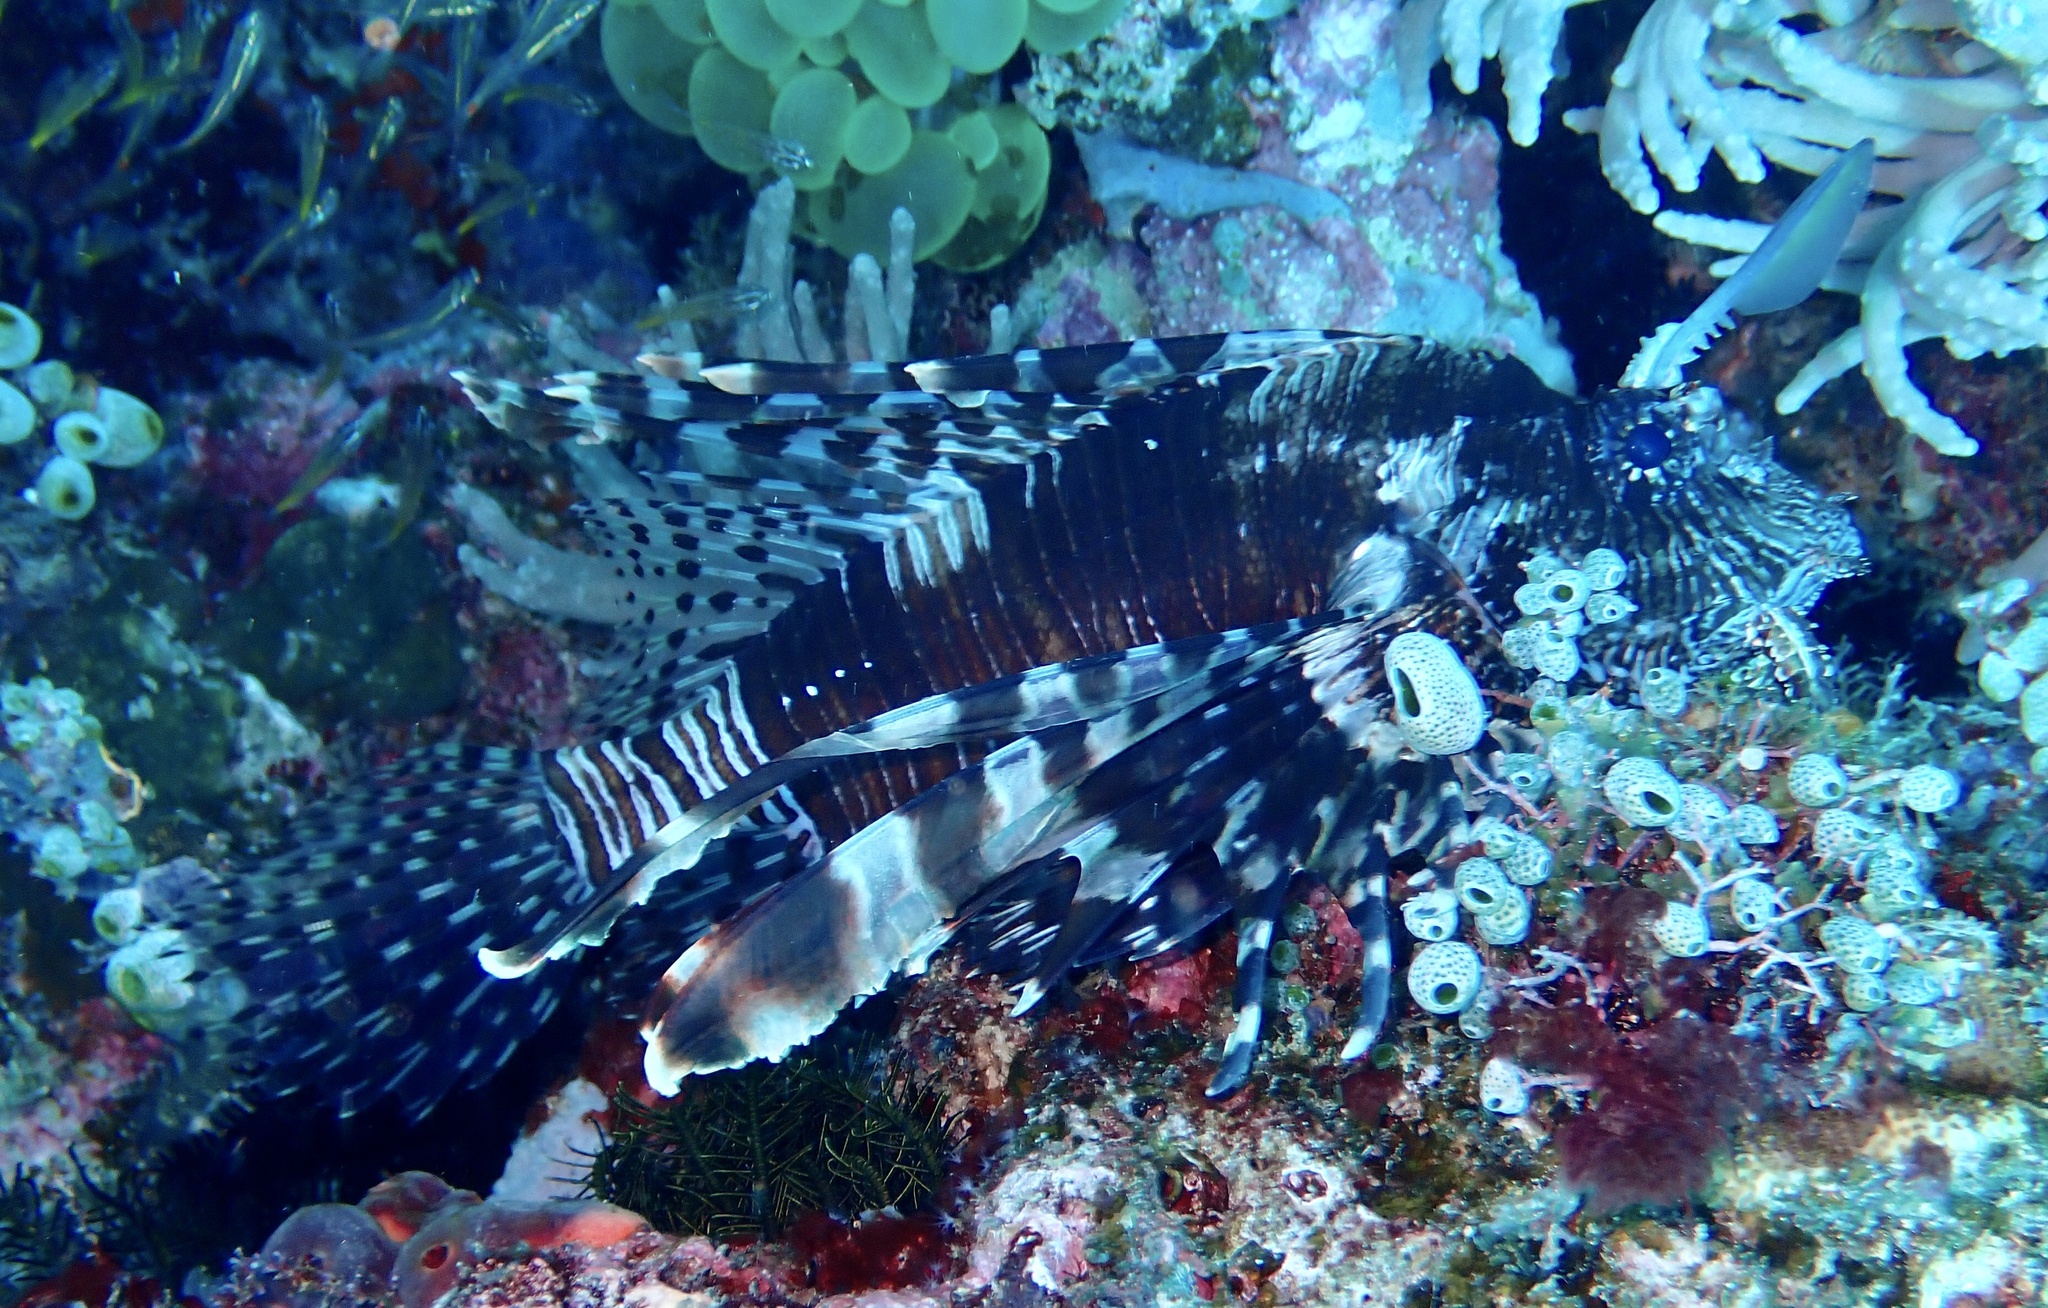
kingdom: Animalia
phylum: Chordata
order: Scorpaeniformes
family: Scorpaenidae
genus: Pterois
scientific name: Pterois volitans
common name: Lionfish
